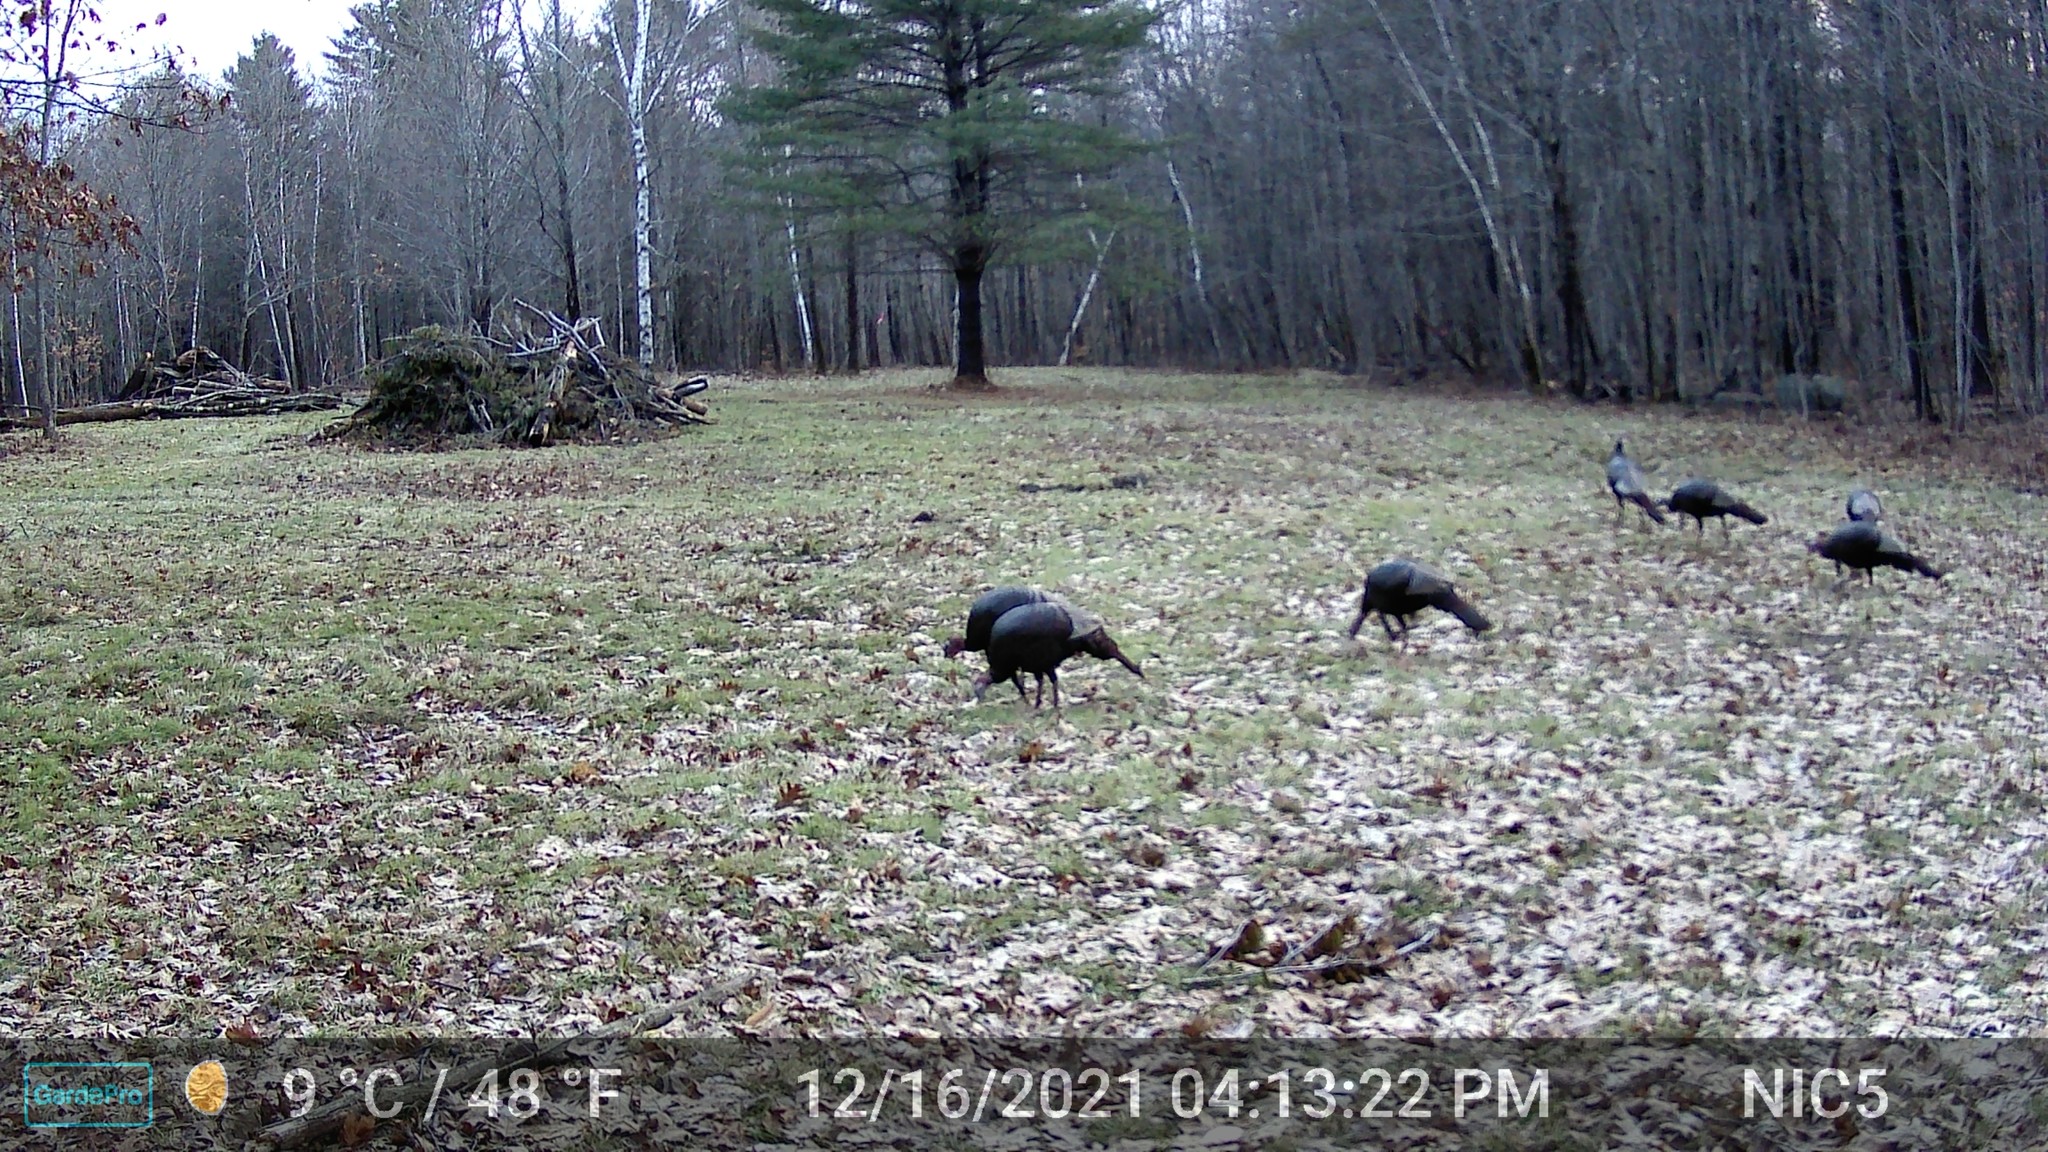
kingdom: Animalia
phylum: Chordata
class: Aves
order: Galliformes
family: Phasianidae
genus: Meleagris
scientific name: Meleagris gallopavo
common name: Wild turkey
